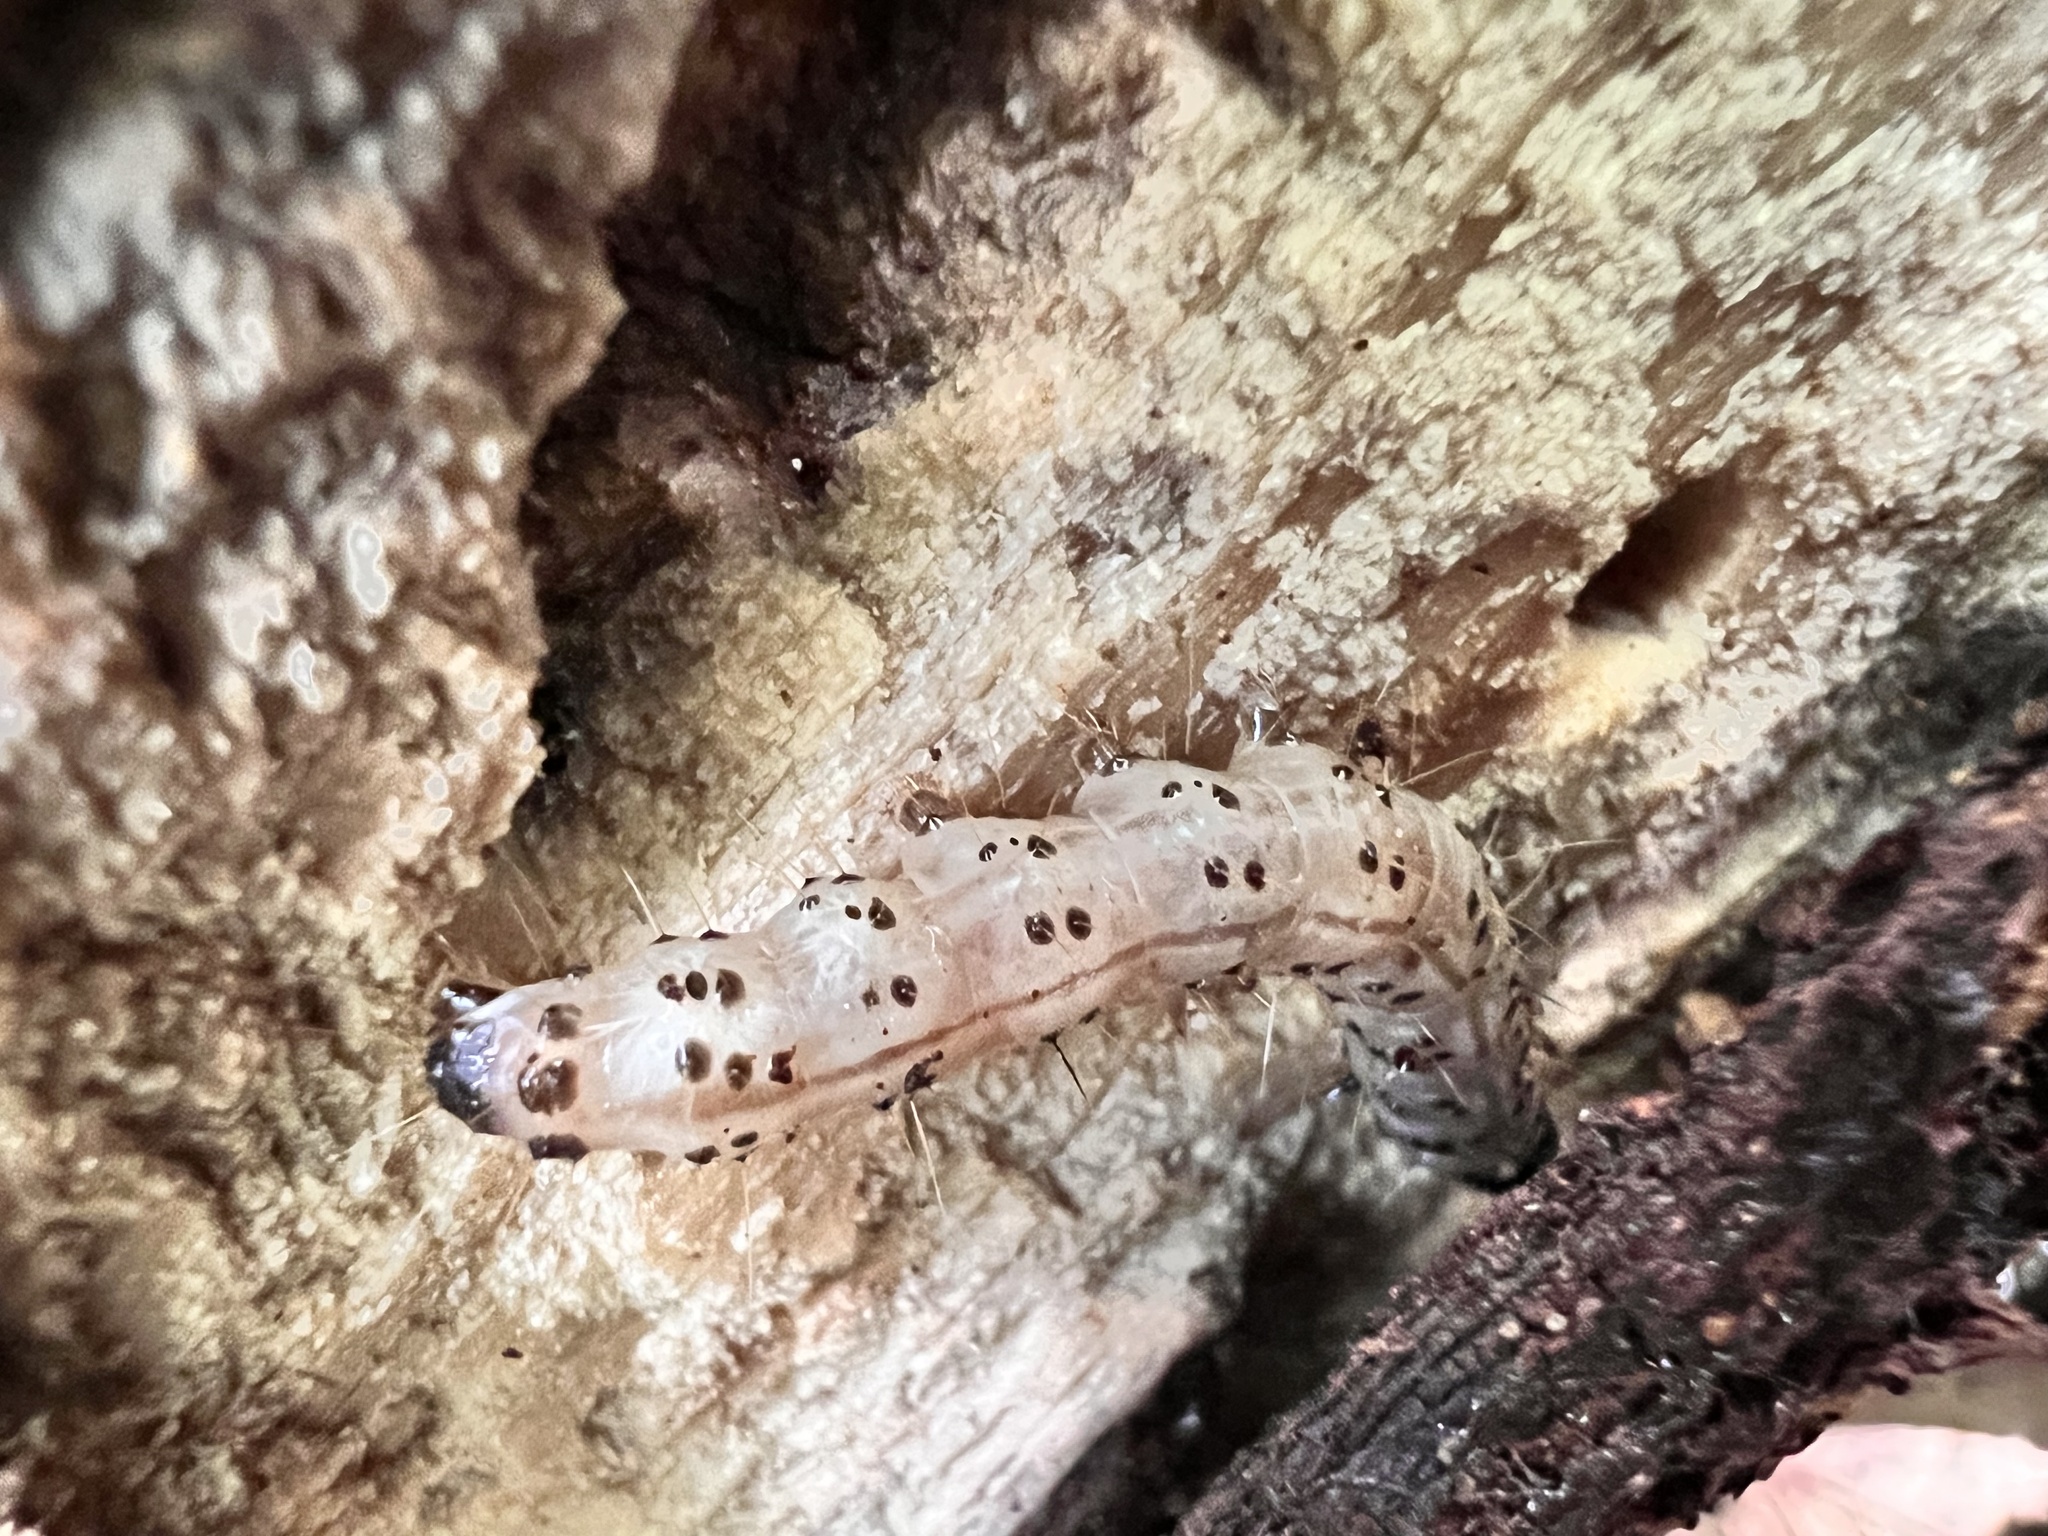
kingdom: Animalia
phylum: Arthropoda
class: Insecta
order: Lepidoptera
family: Erebidae
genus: Scolecocampa
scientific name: Scolecocampa liburna
